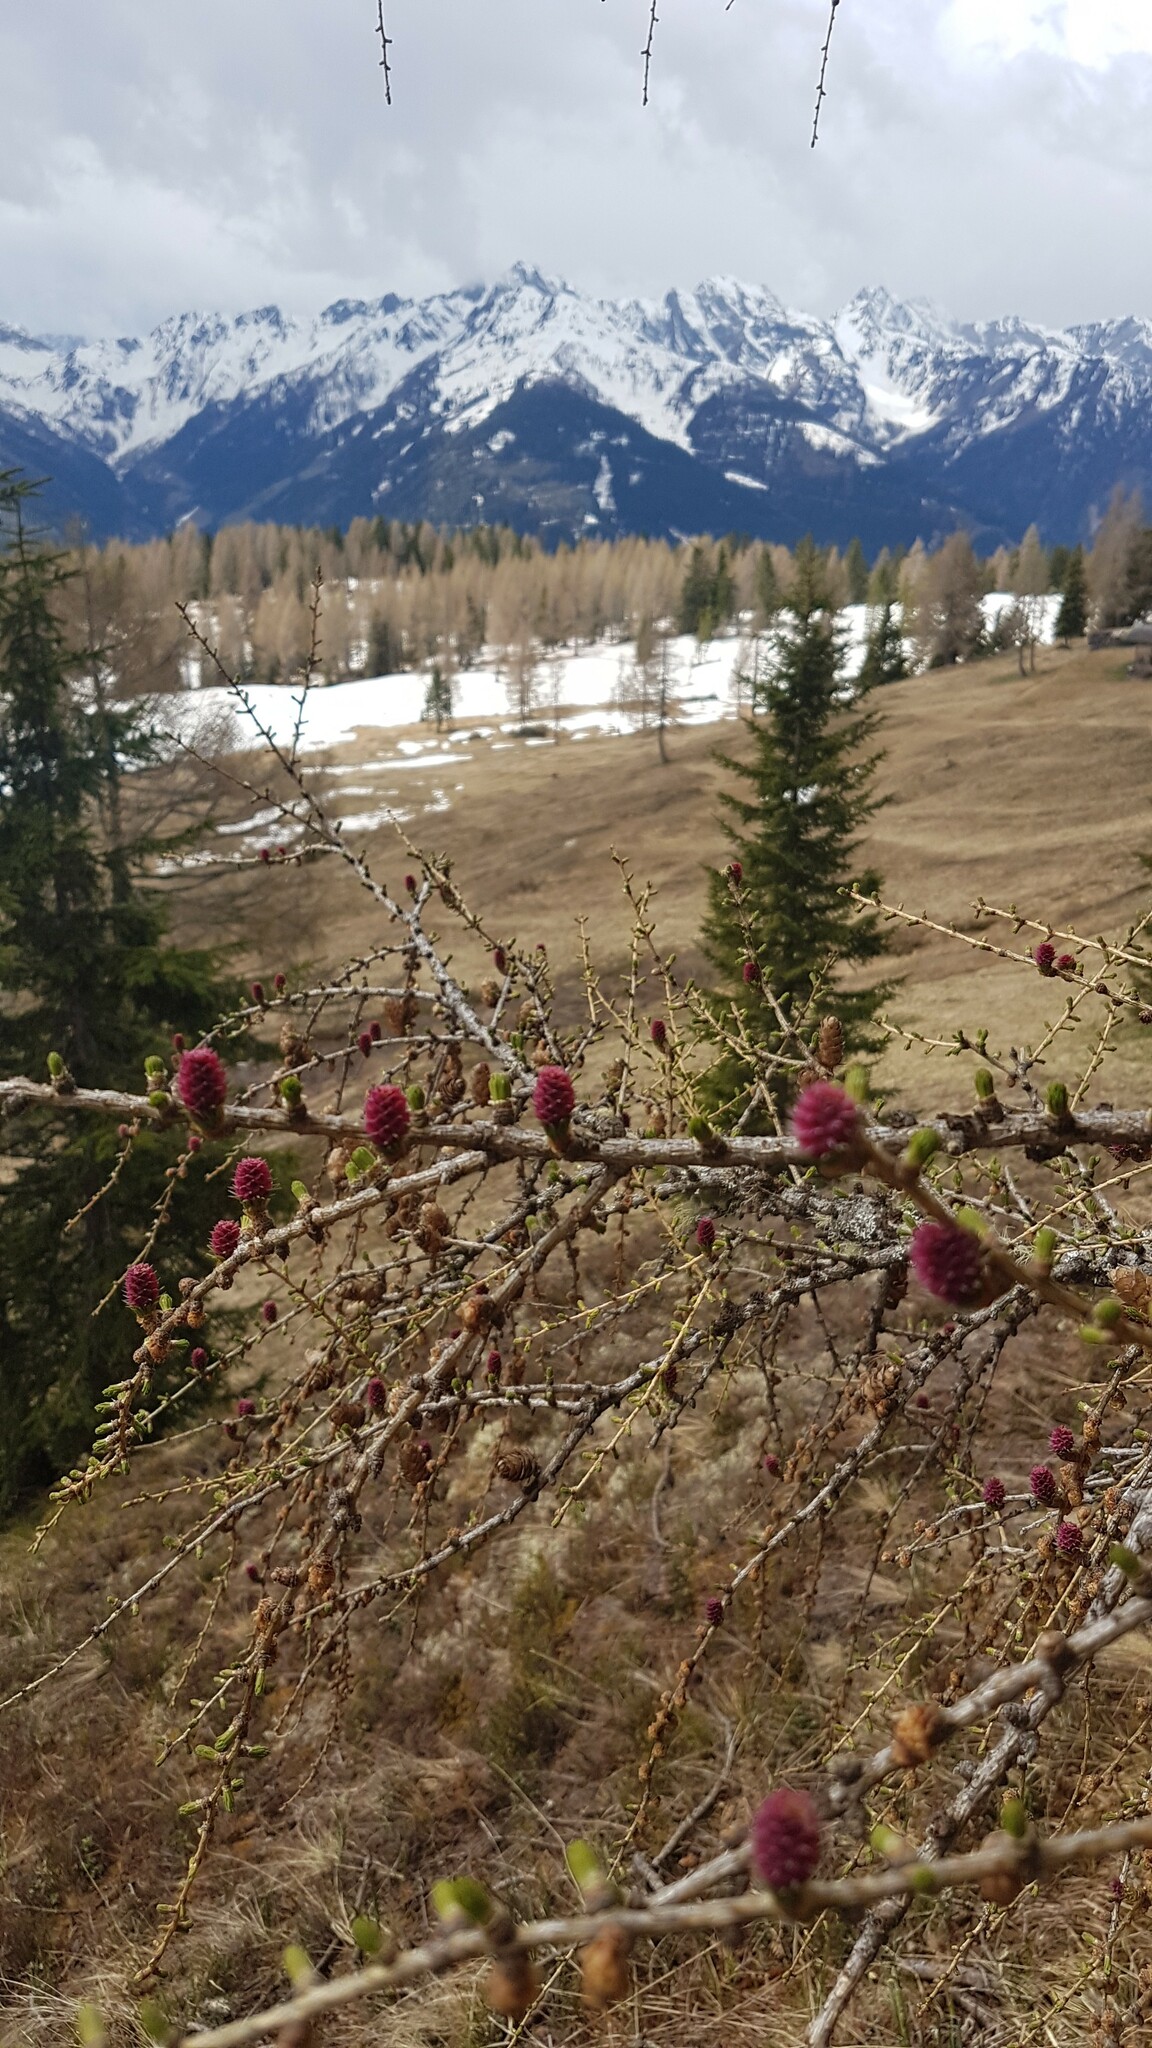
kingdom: Plantae
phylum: Tracheophyta
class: Pinopsida
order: Pinales
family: Pinaceae
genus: Larix
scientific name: Larix decidua
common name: European larch
